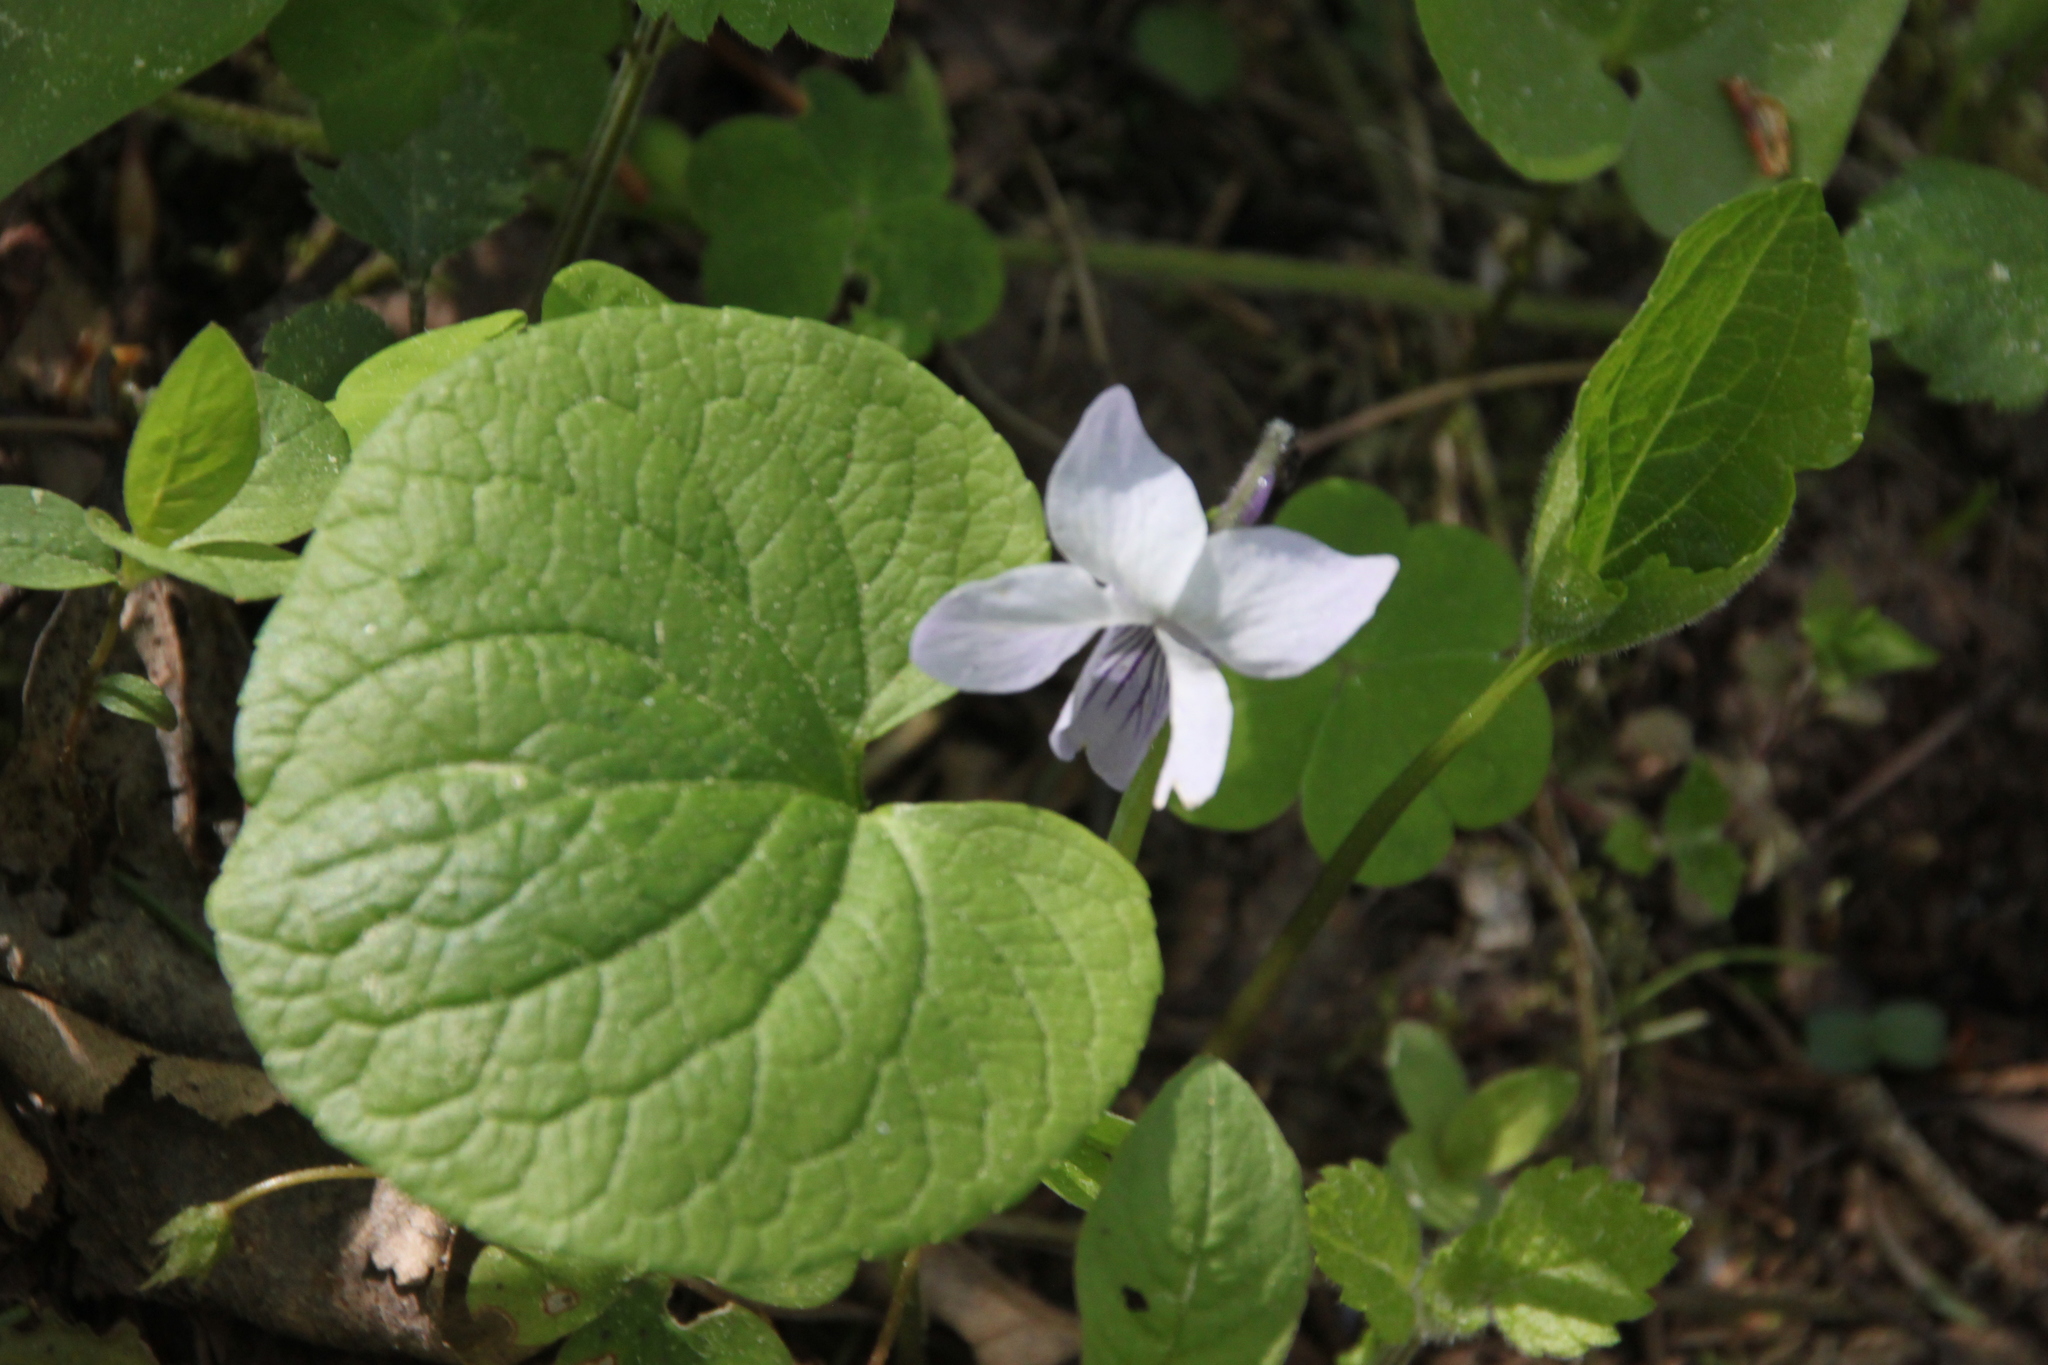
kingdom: Plantae
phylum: Tracheophyta
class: Magnoliopsida
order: Malpighiales
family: Violaceae
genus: Viola
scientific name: Viola epipsila
